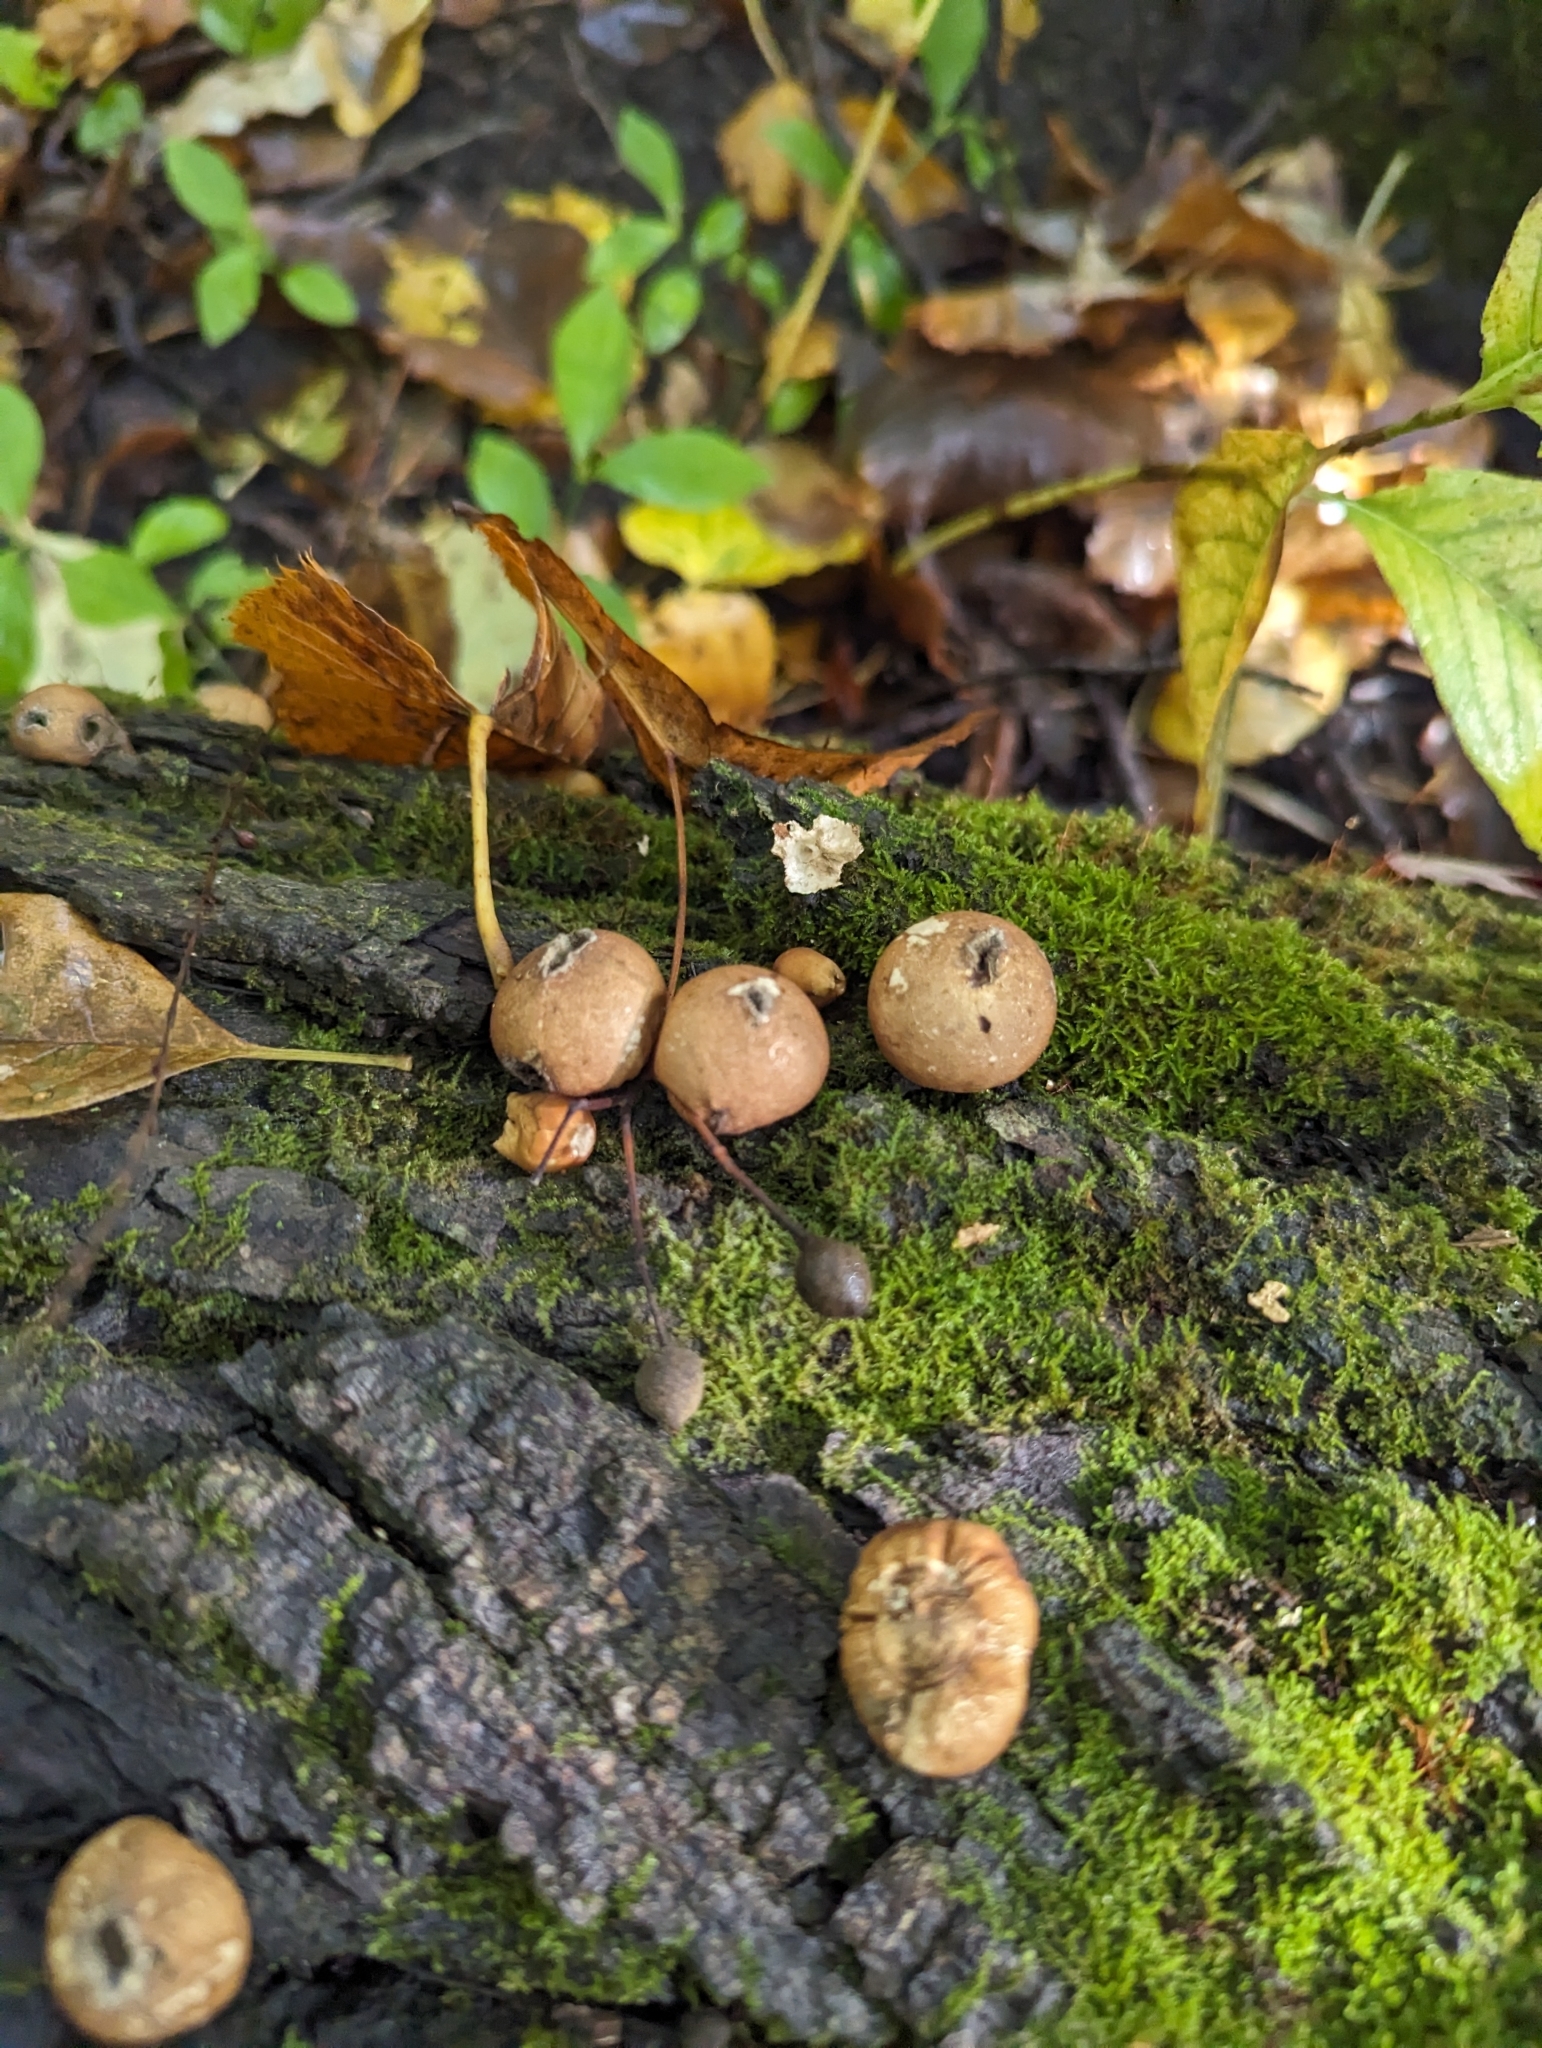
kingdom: Fungi
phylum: Basidiomycota
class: Agaricomycetes
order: Agaricales
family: Lycoperdaceae
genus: Apioperdon
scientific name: Apioperdon pyriforme
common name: Pear-shaped puffball
